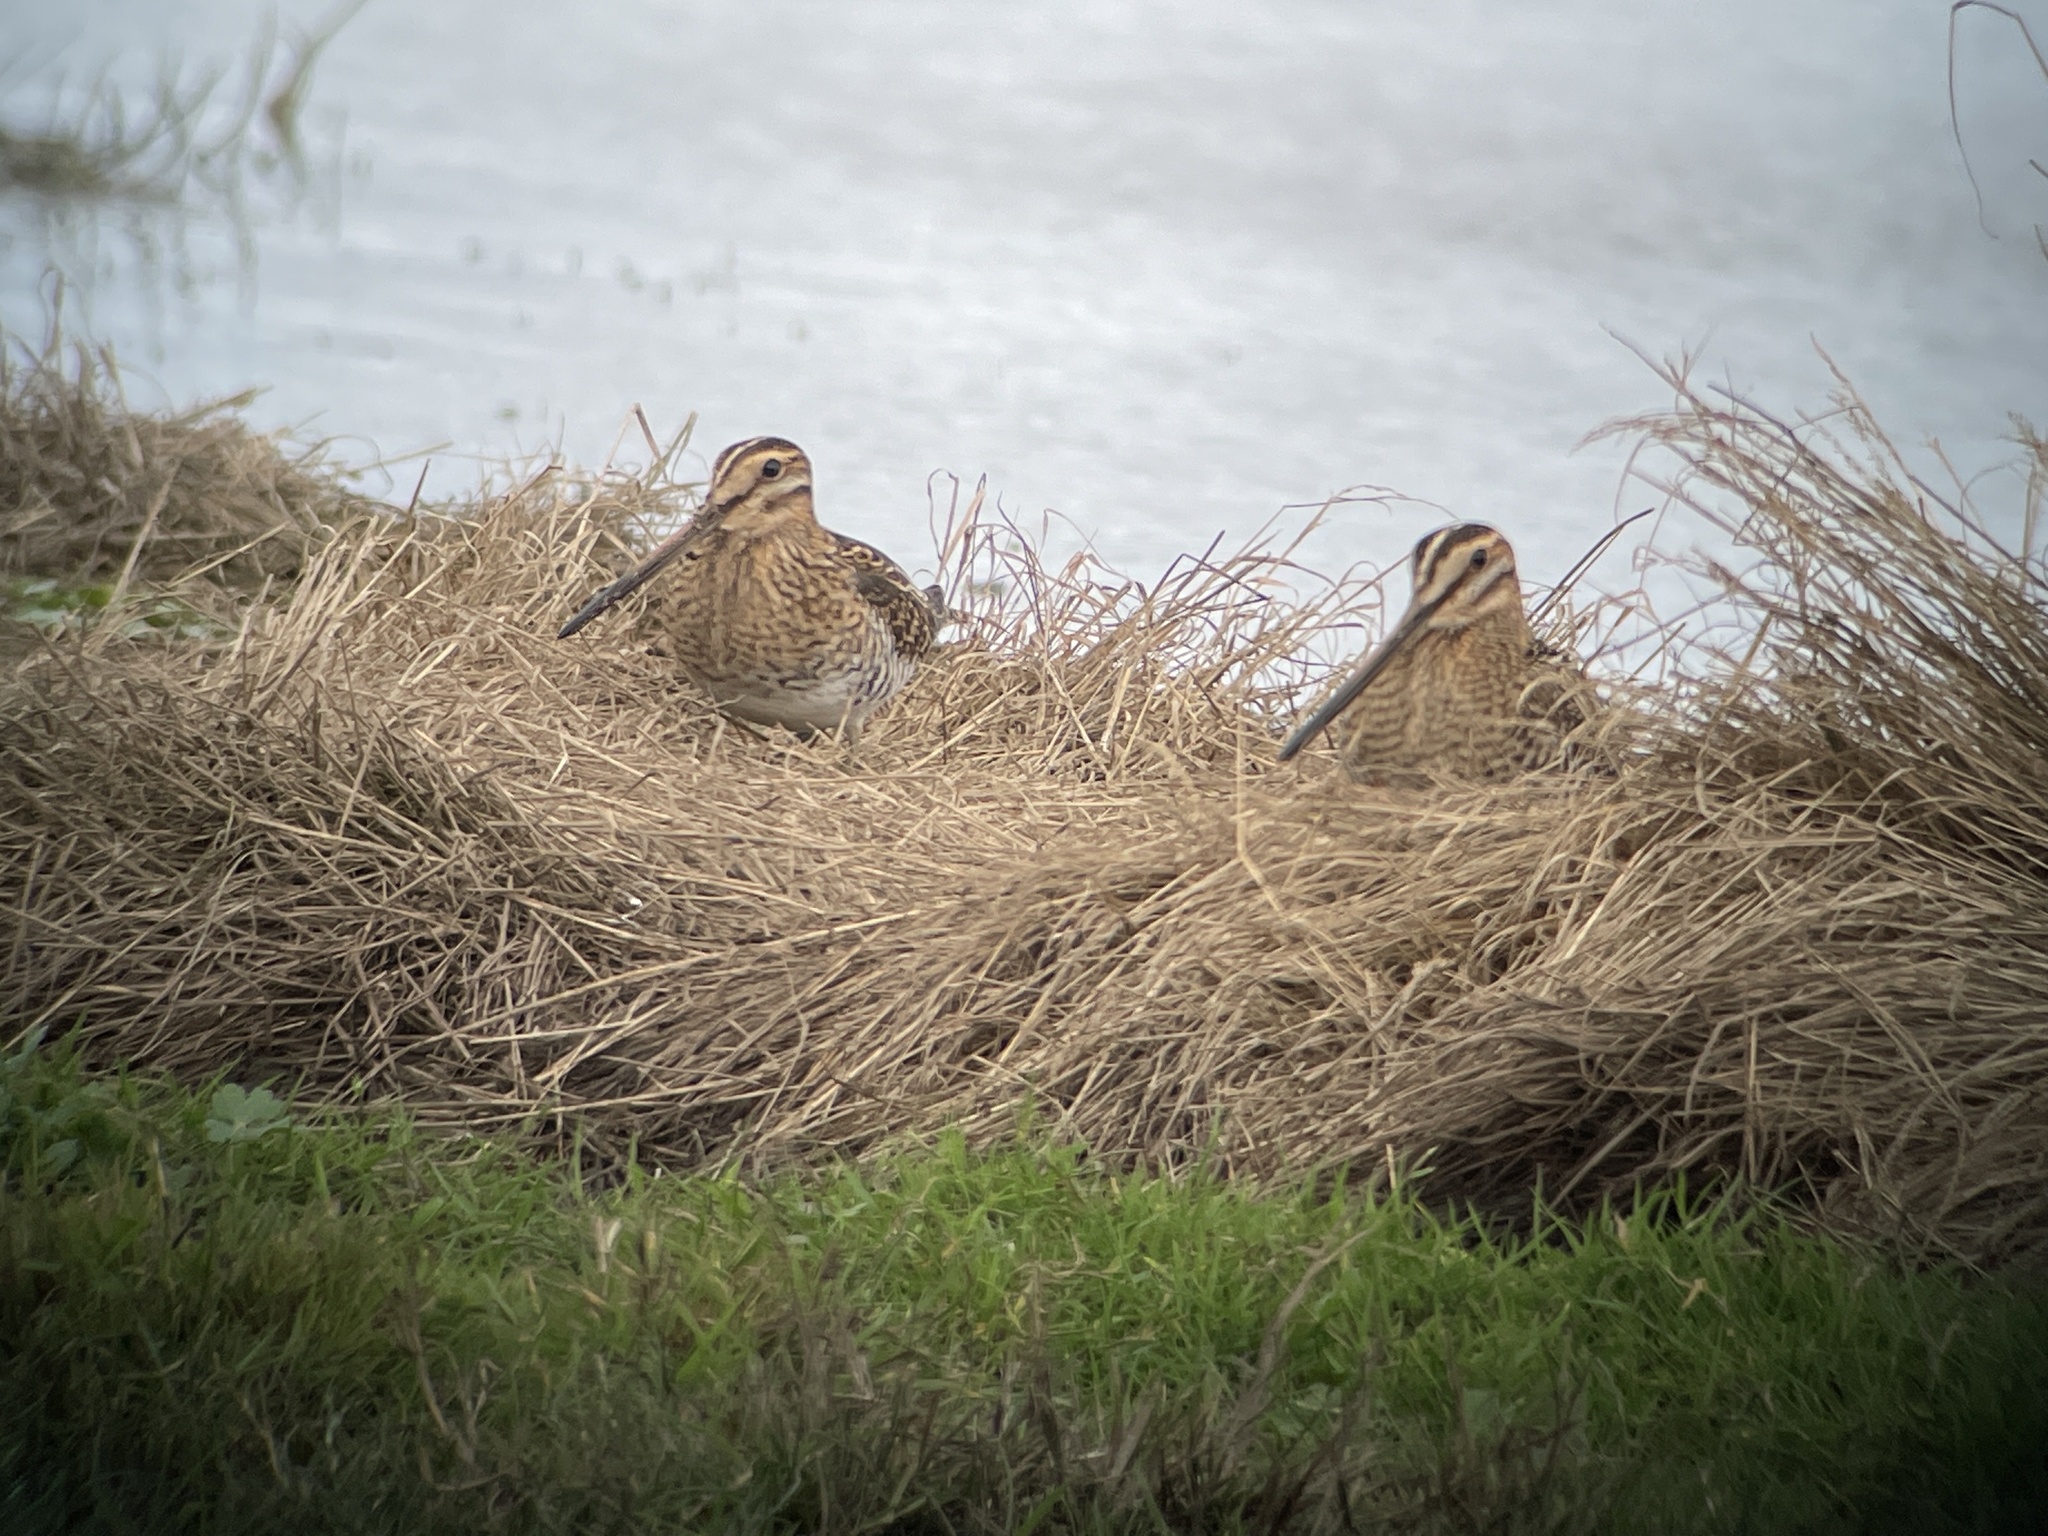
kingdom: Animalia
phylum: Chordata
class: Aves
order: Charadriiformes
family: Scolopacidae
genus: Gallinago
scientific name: Gallinago gallinago
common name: Common snipe
